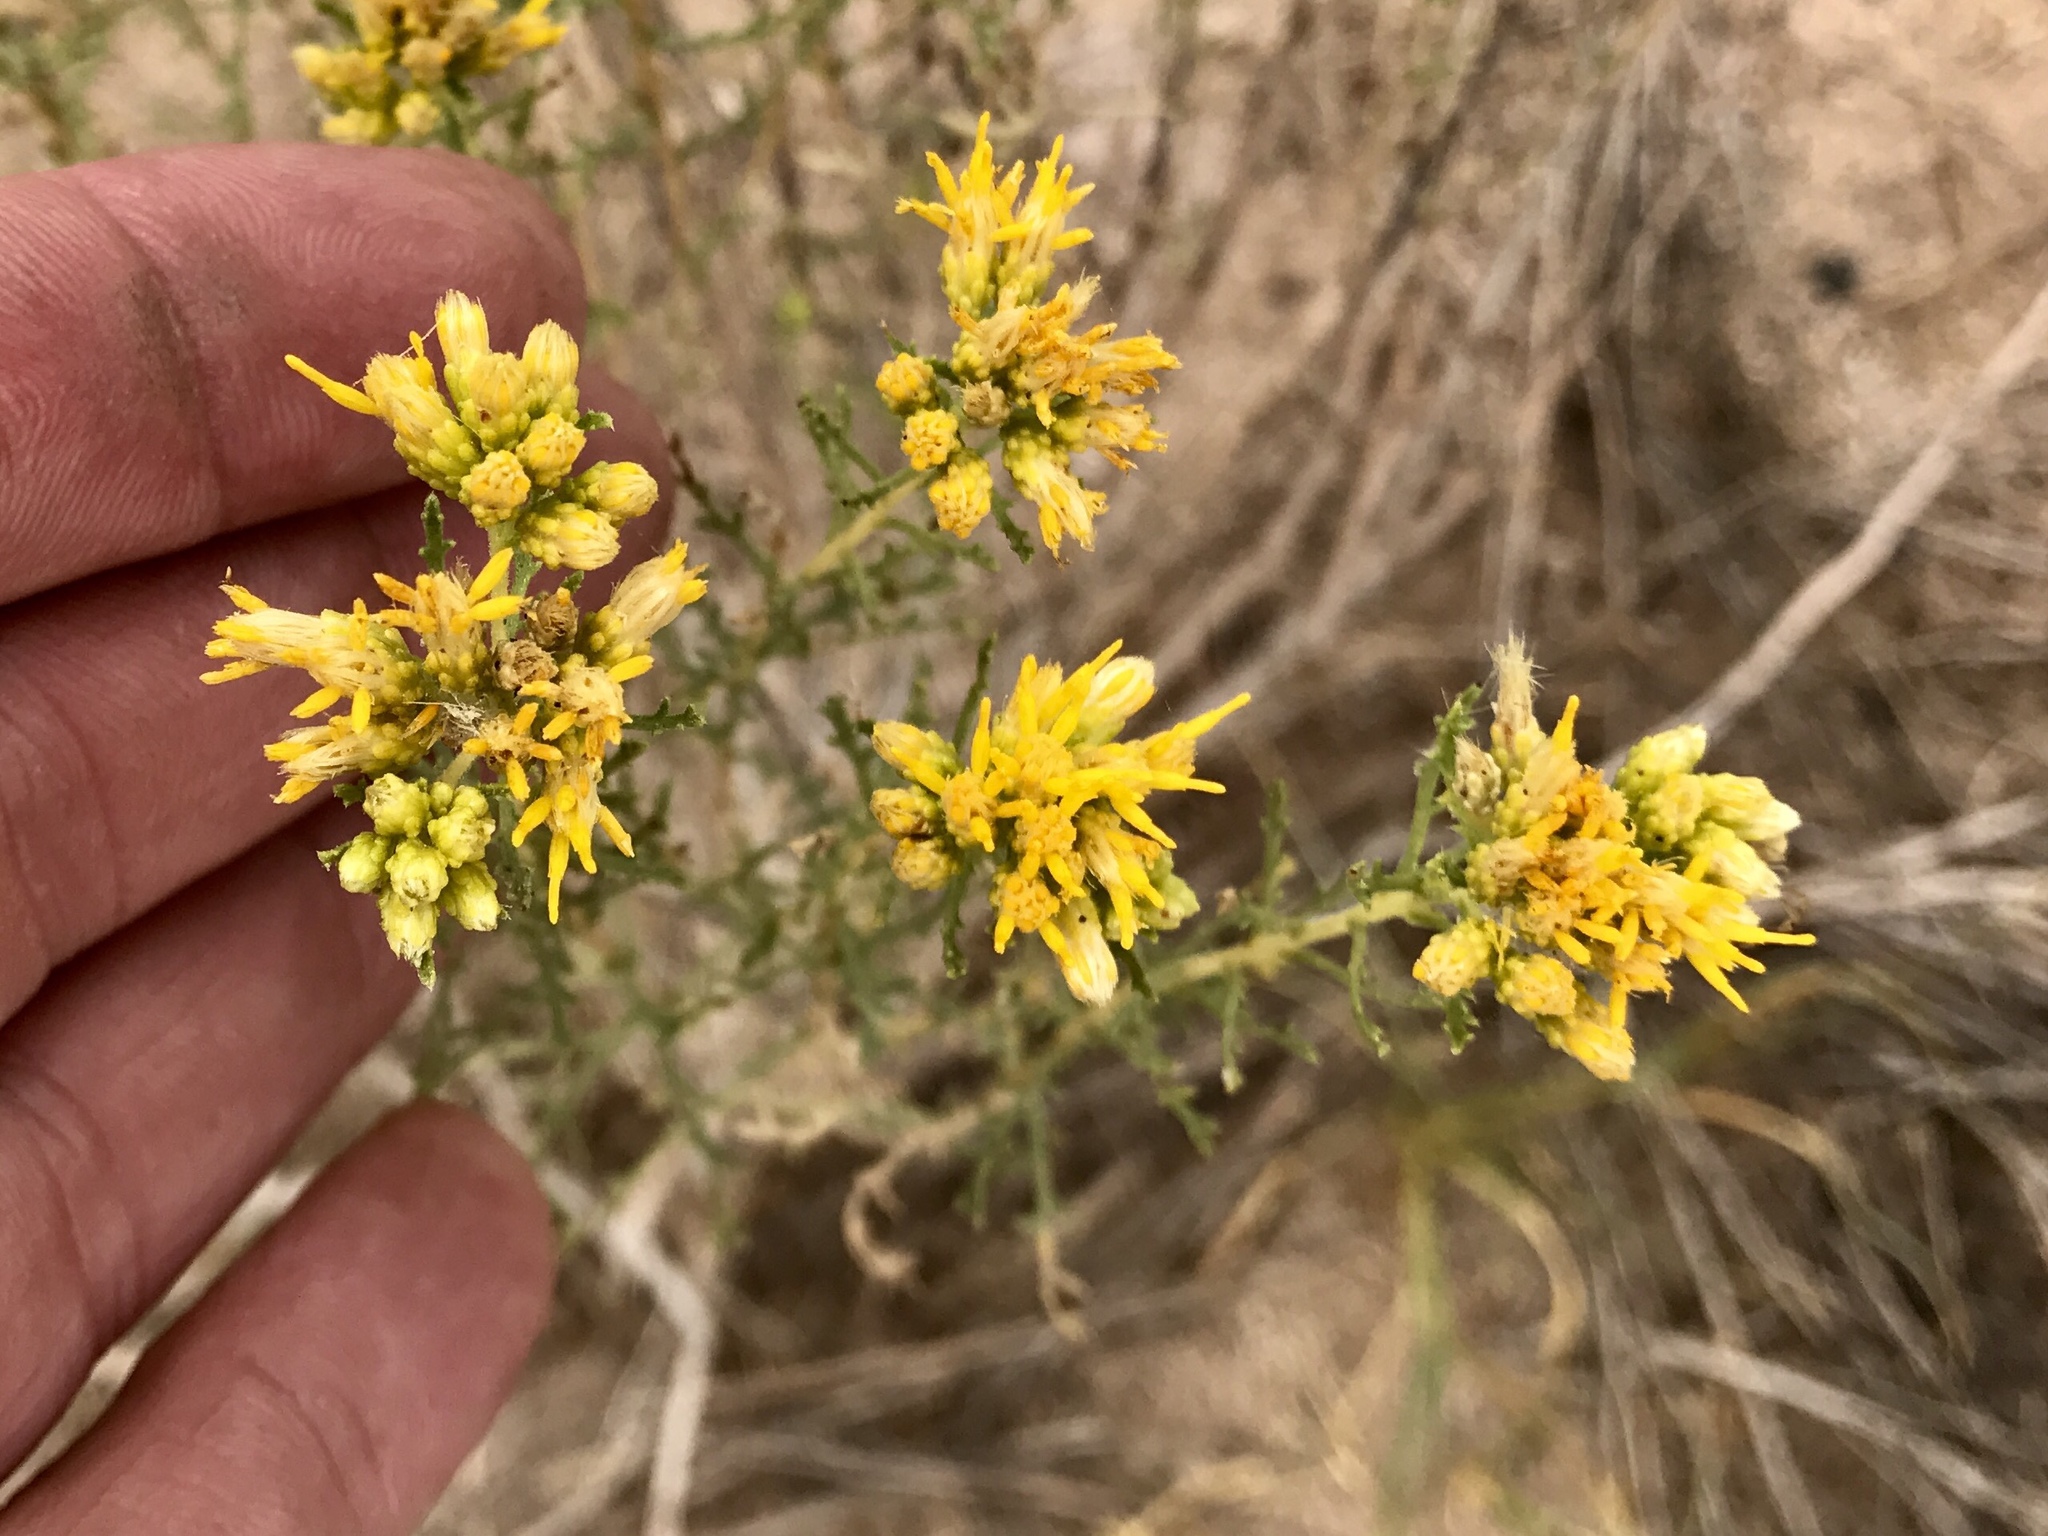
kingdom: Plantae
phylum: Tracheophyta
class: Magnoliopsida
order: Asterales
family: Asteraceae
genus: Isocoma
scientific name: Isocoma tenuisecta
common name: Burroweed
